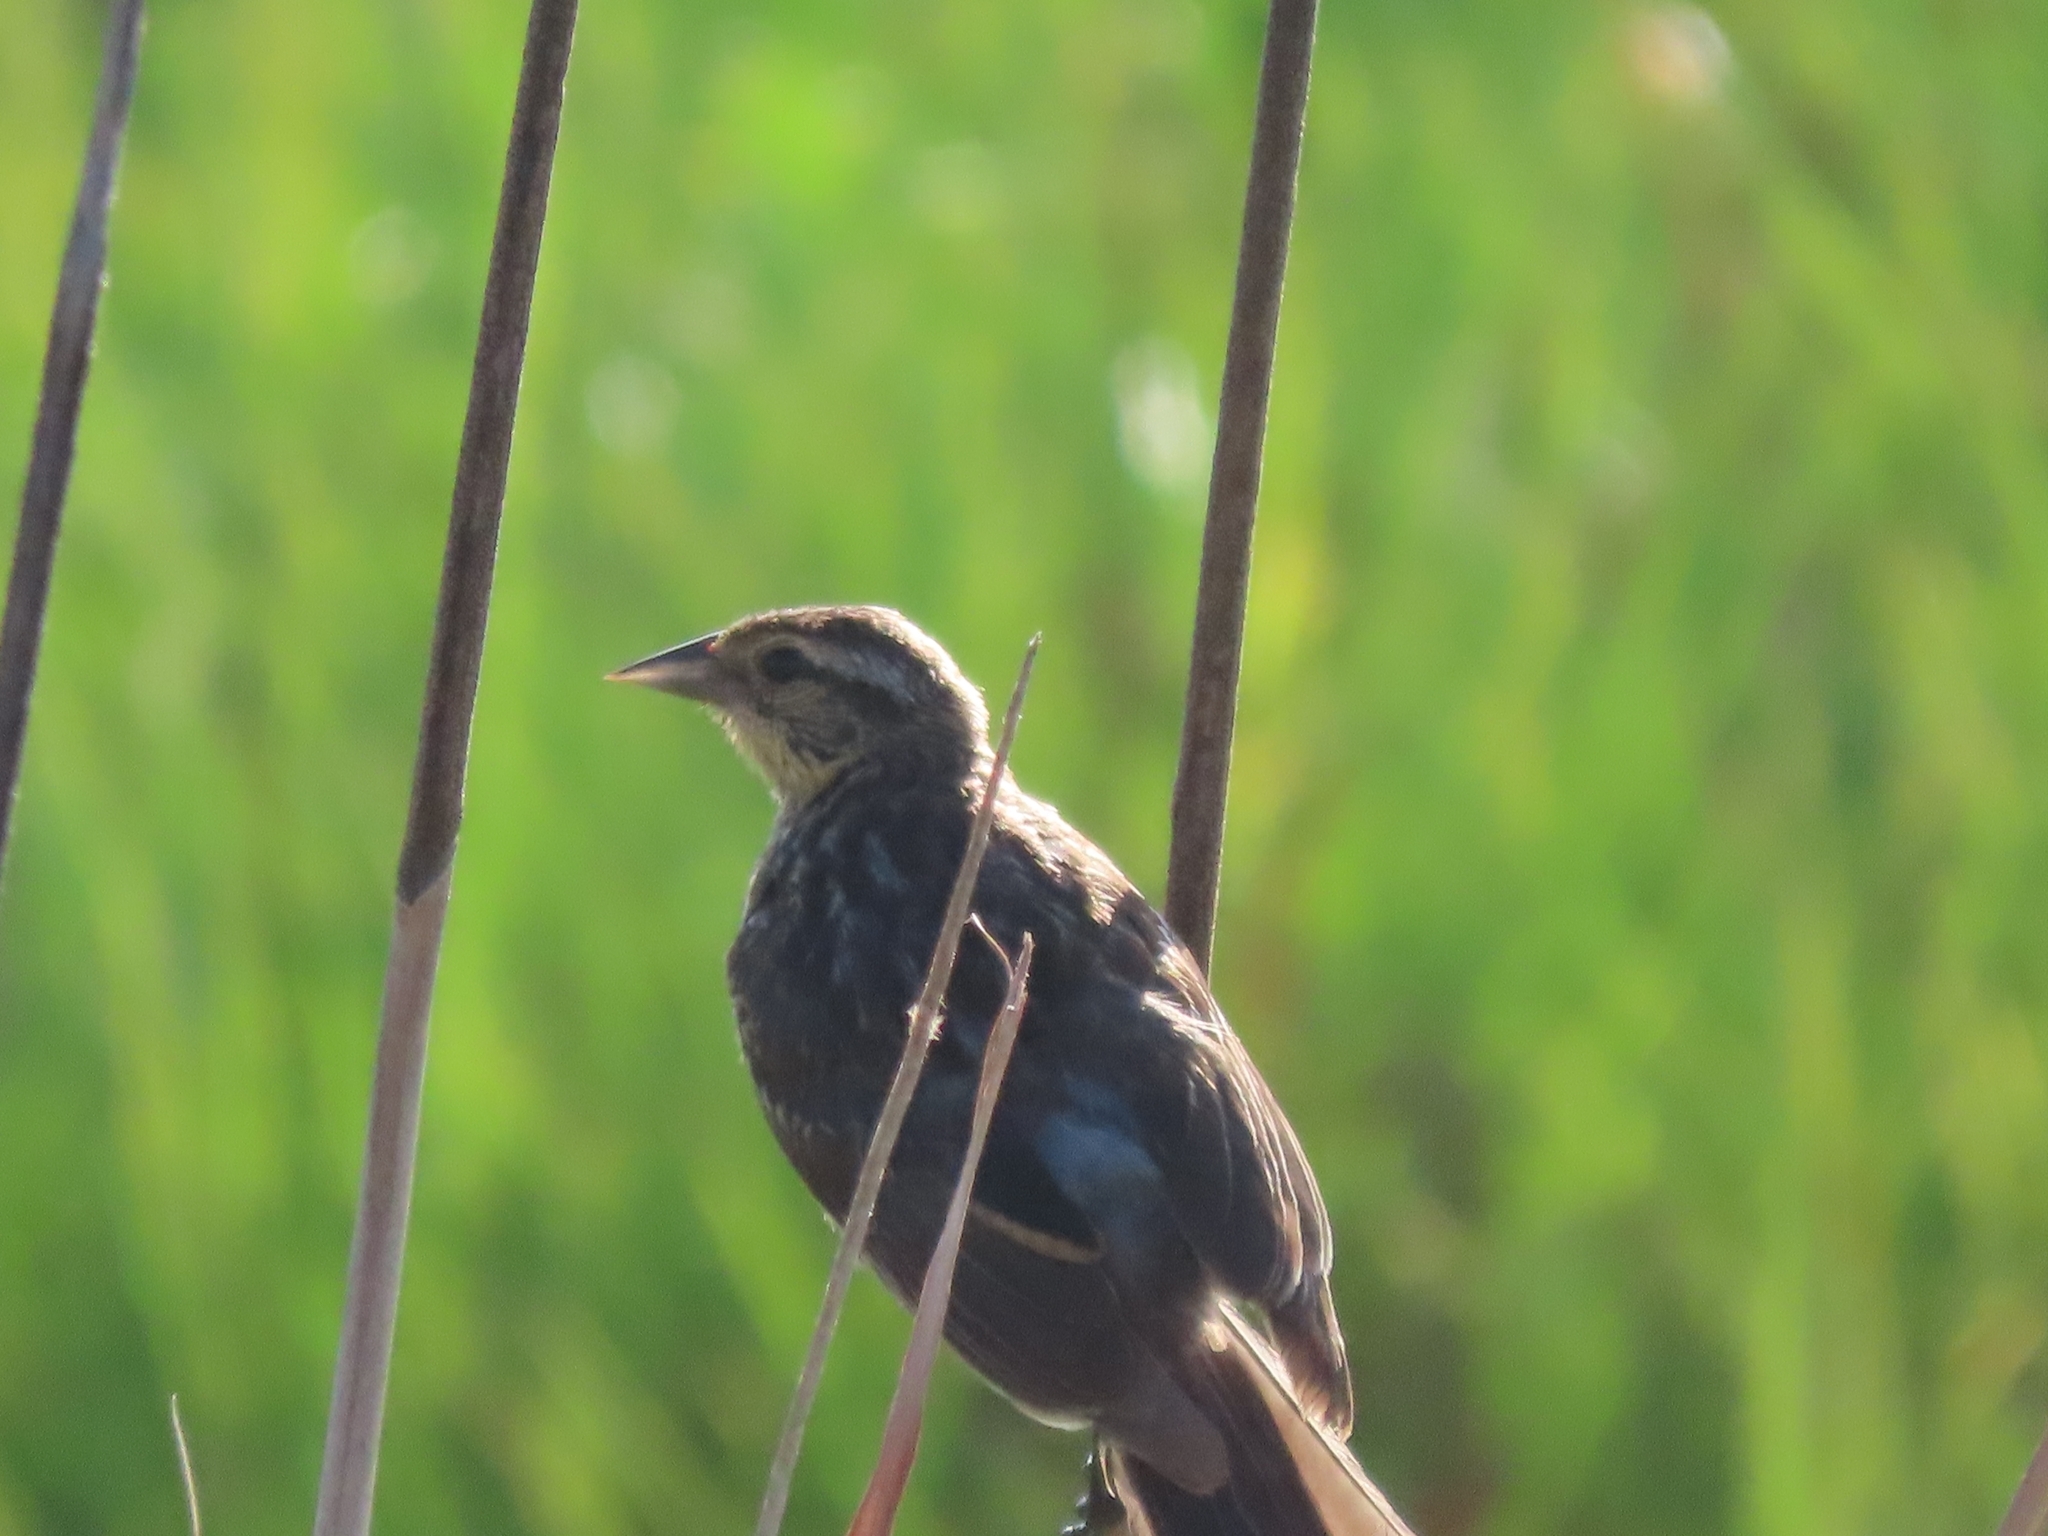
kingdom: Animalia
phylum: Chordata
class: Aves
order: Passeriformes
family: Icteridae
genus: Agelaius
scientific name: Agelaius phoeniceus
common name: Red-winged blackbird
